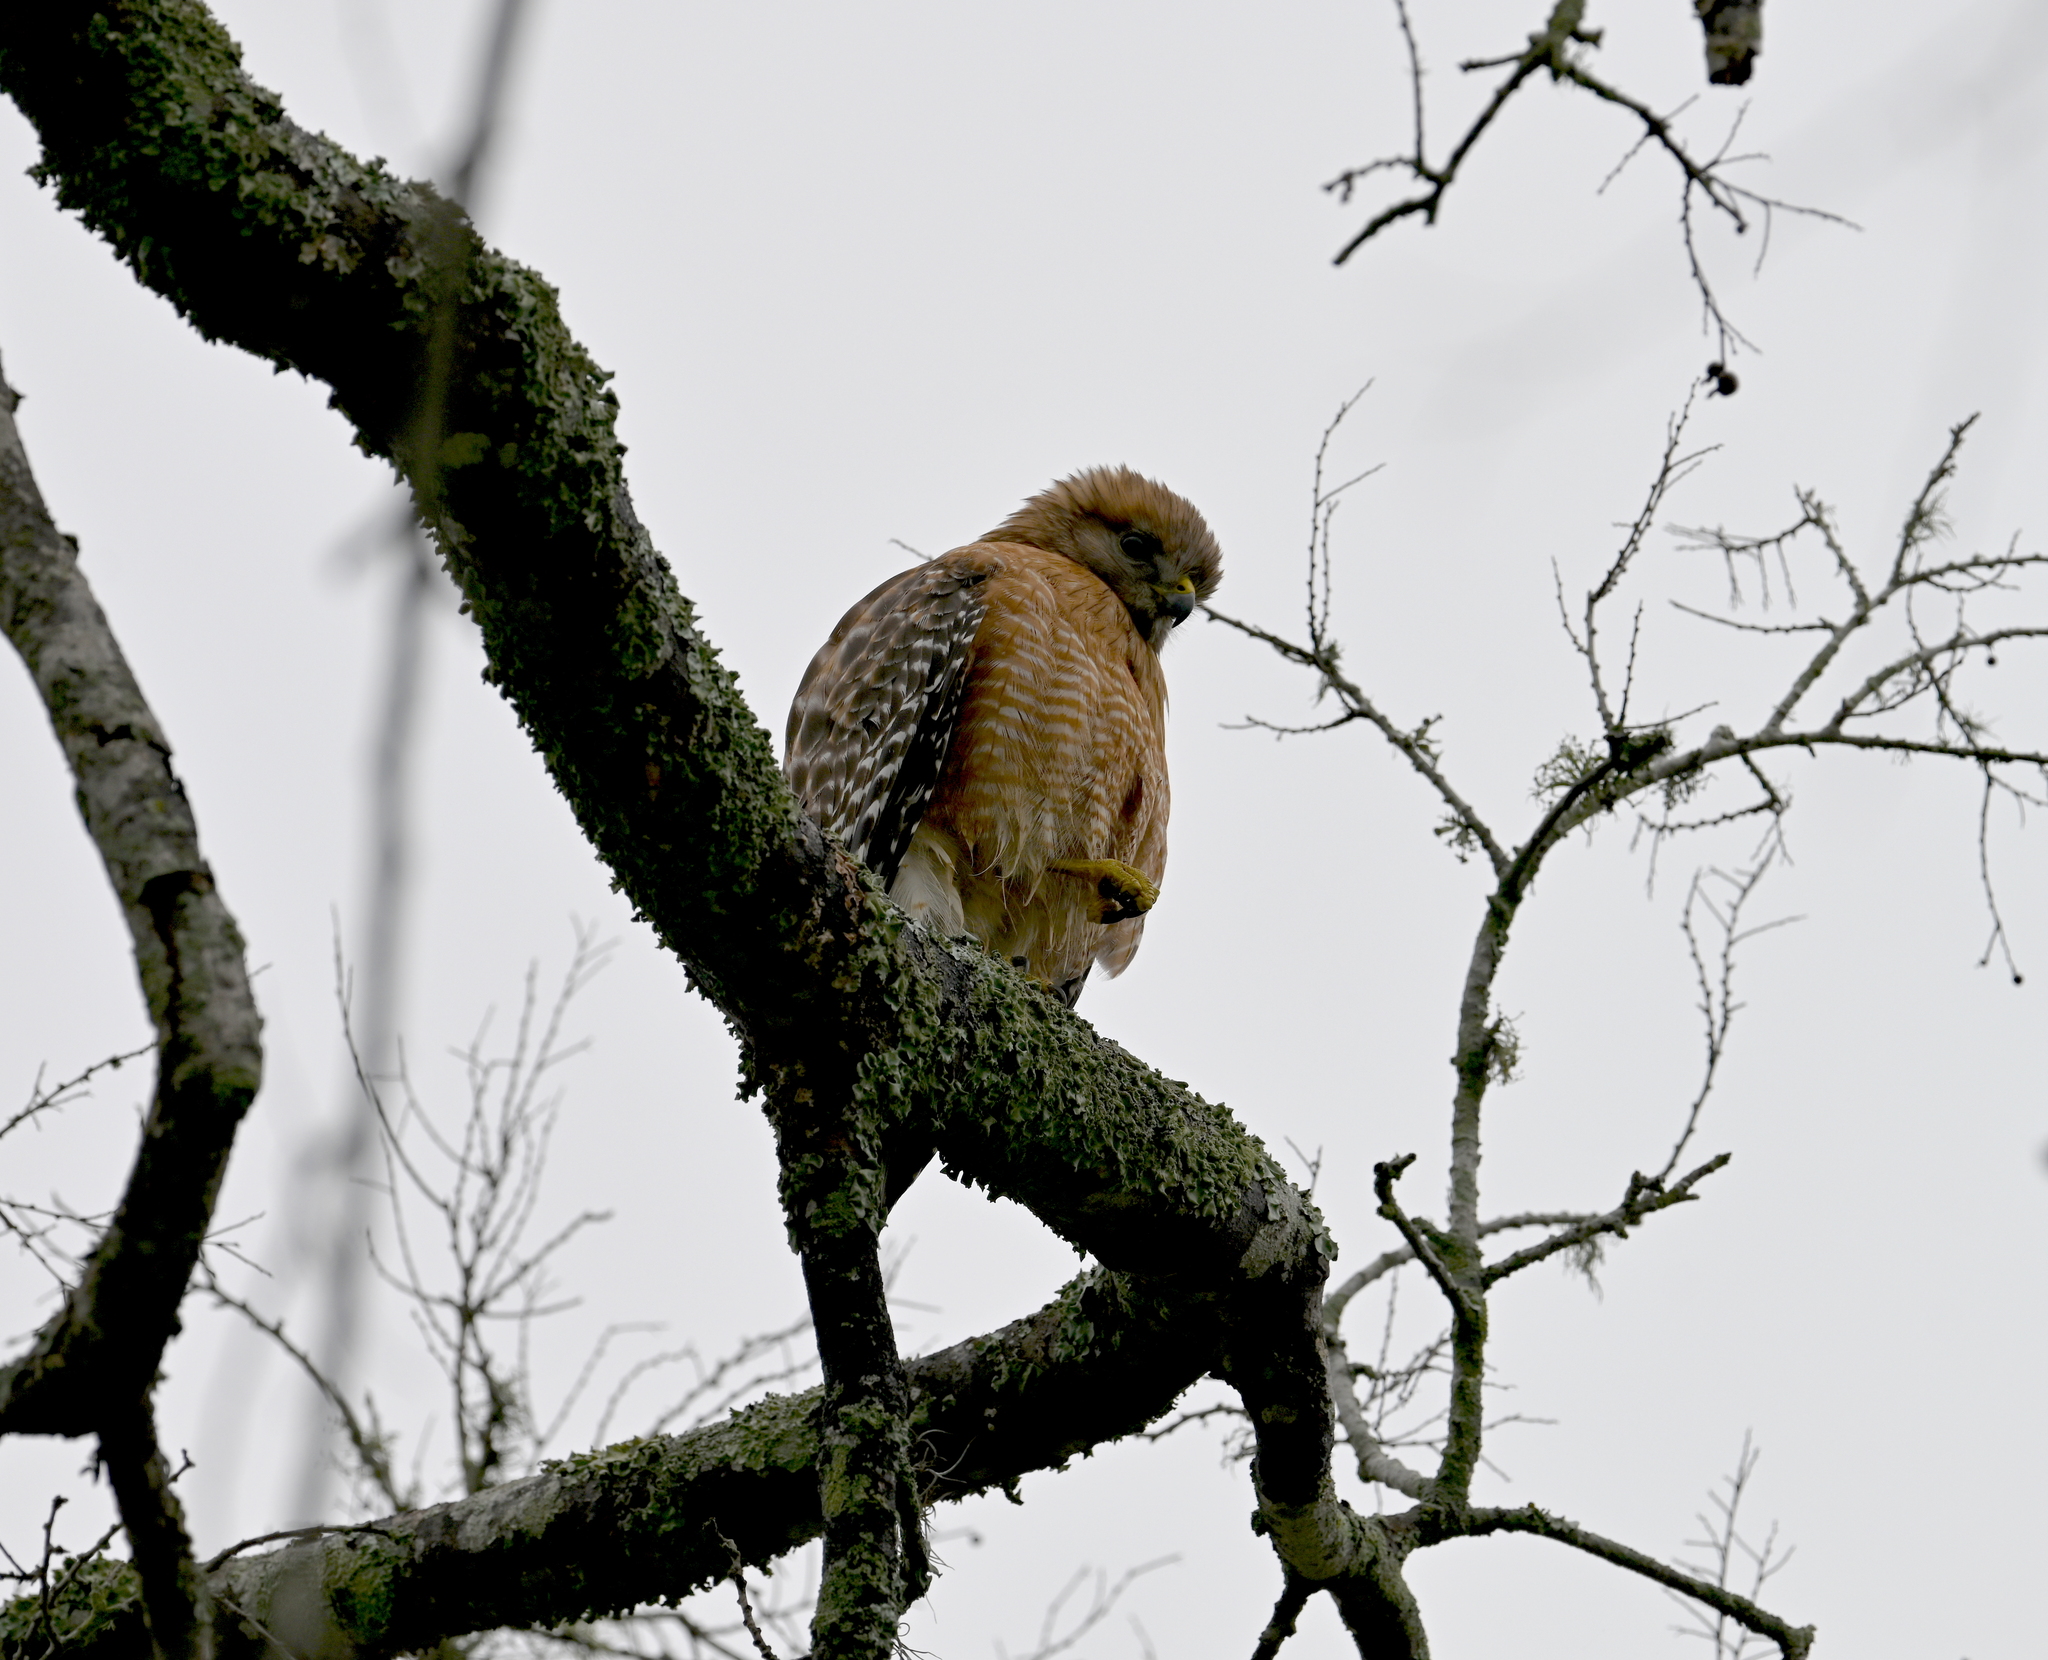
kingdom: Animalia
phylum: Chordata
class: Aves
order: Accipitriformes
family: Accipitridae
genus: Buteo
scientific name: Buteo lineatus
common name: Red-shouldered hawk
